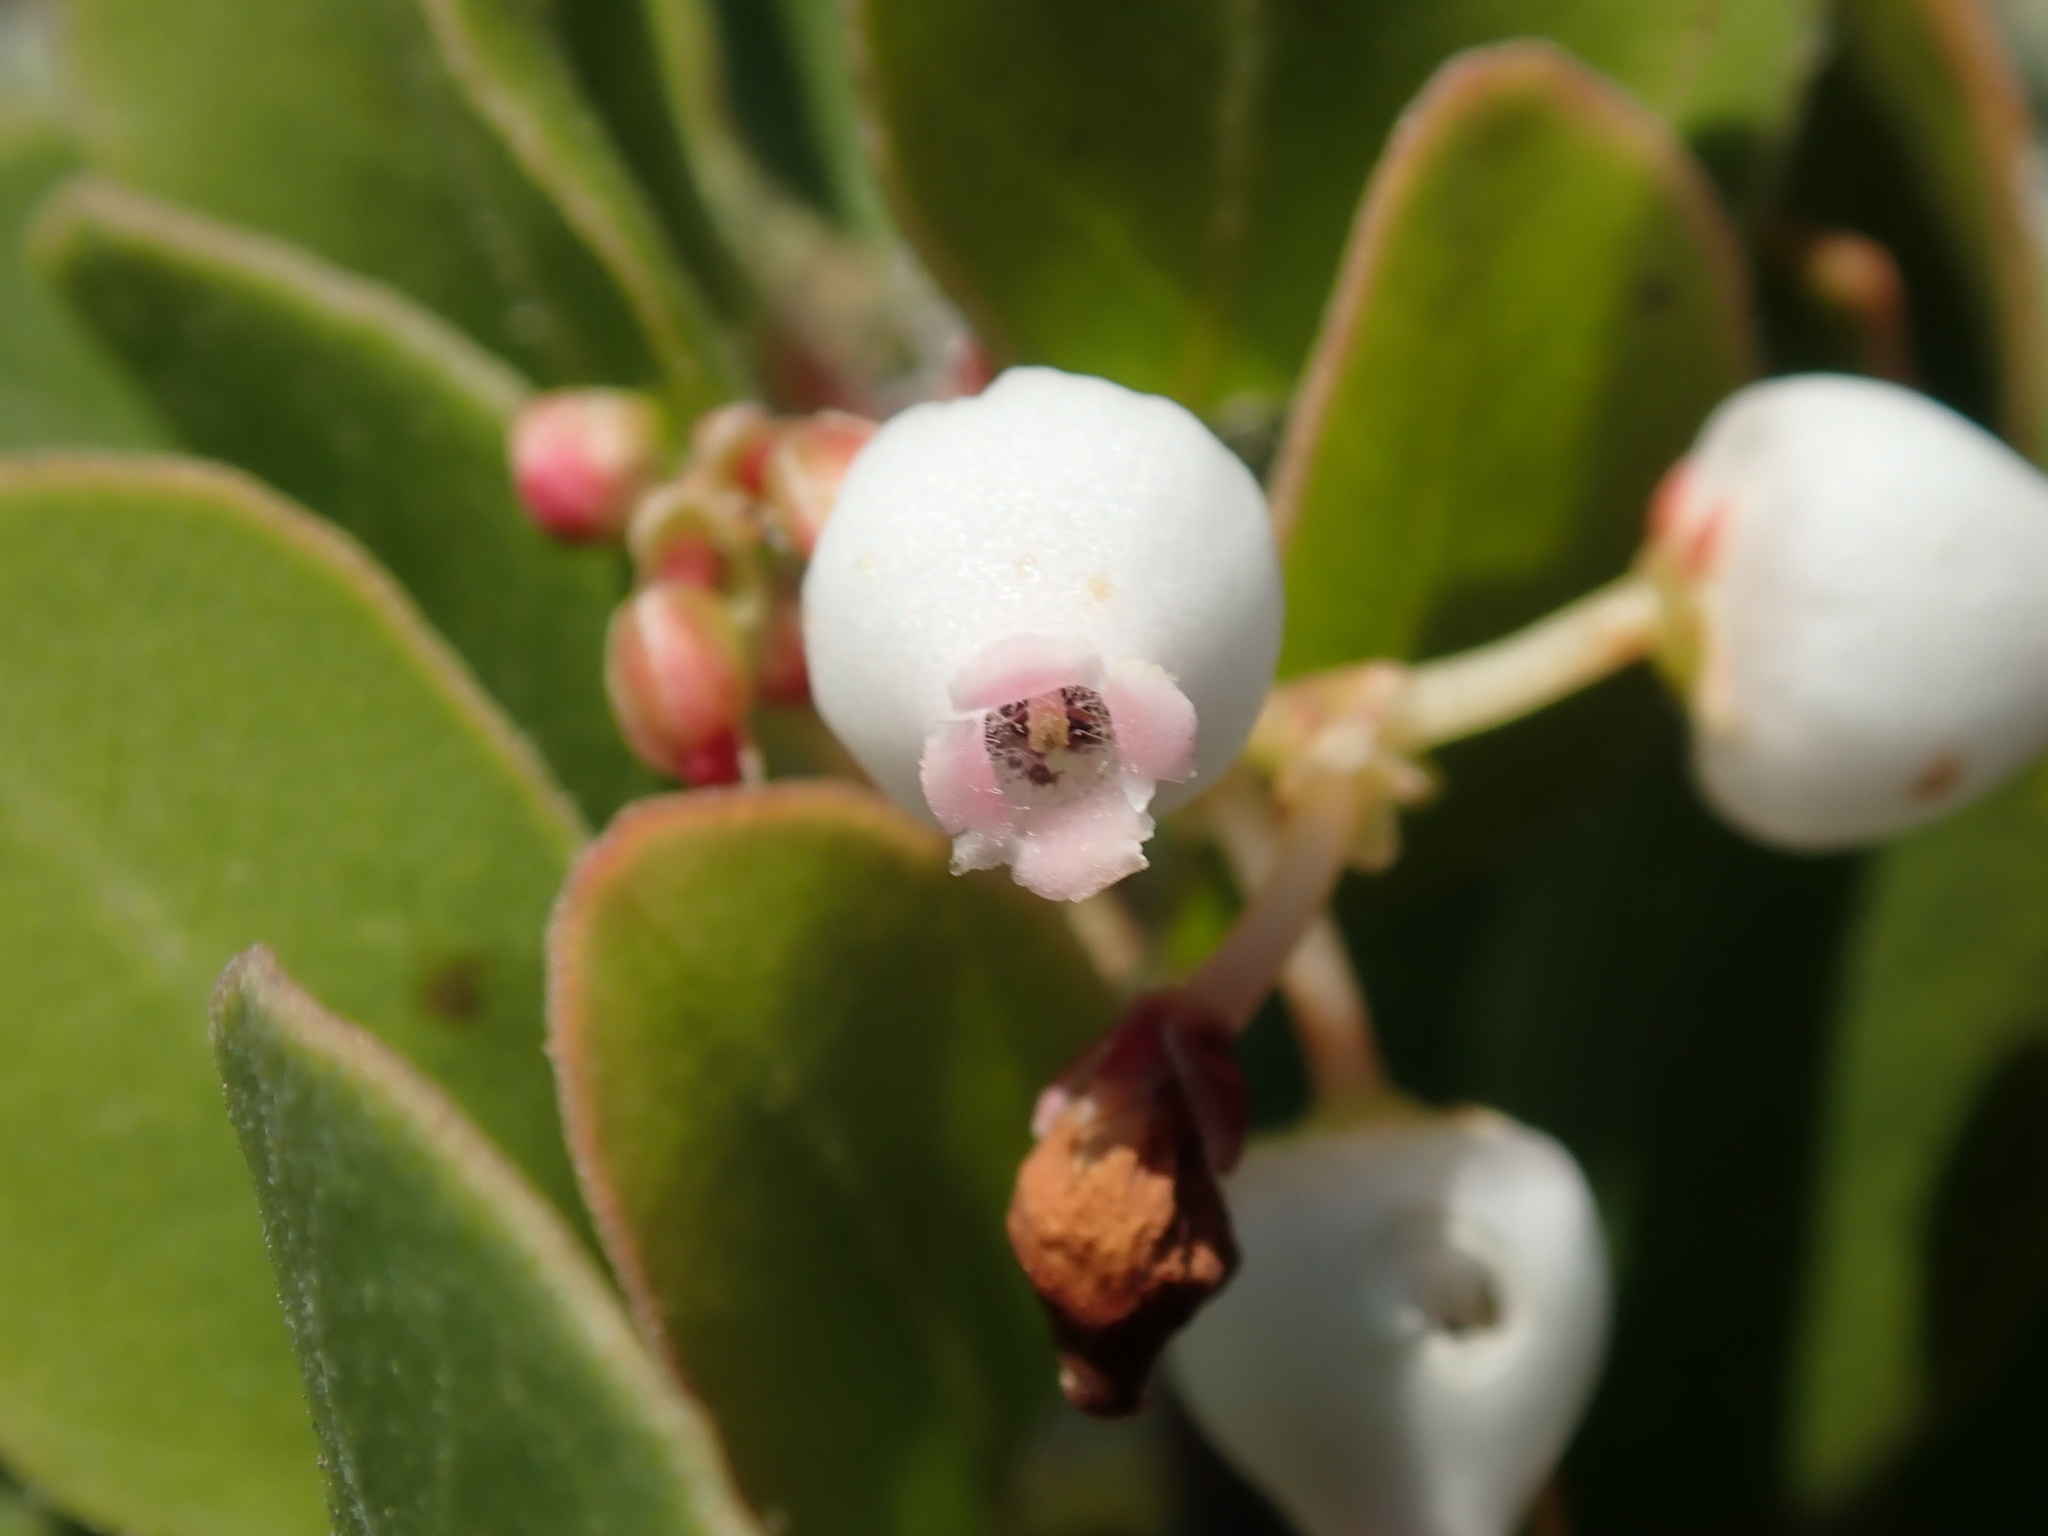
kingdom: Plantae
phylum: Tracheophyta
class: Magnoliopsida
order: Ericales
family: Ericaceae
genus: Arctostaphylos
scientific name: Arctostaphylos nummularia
